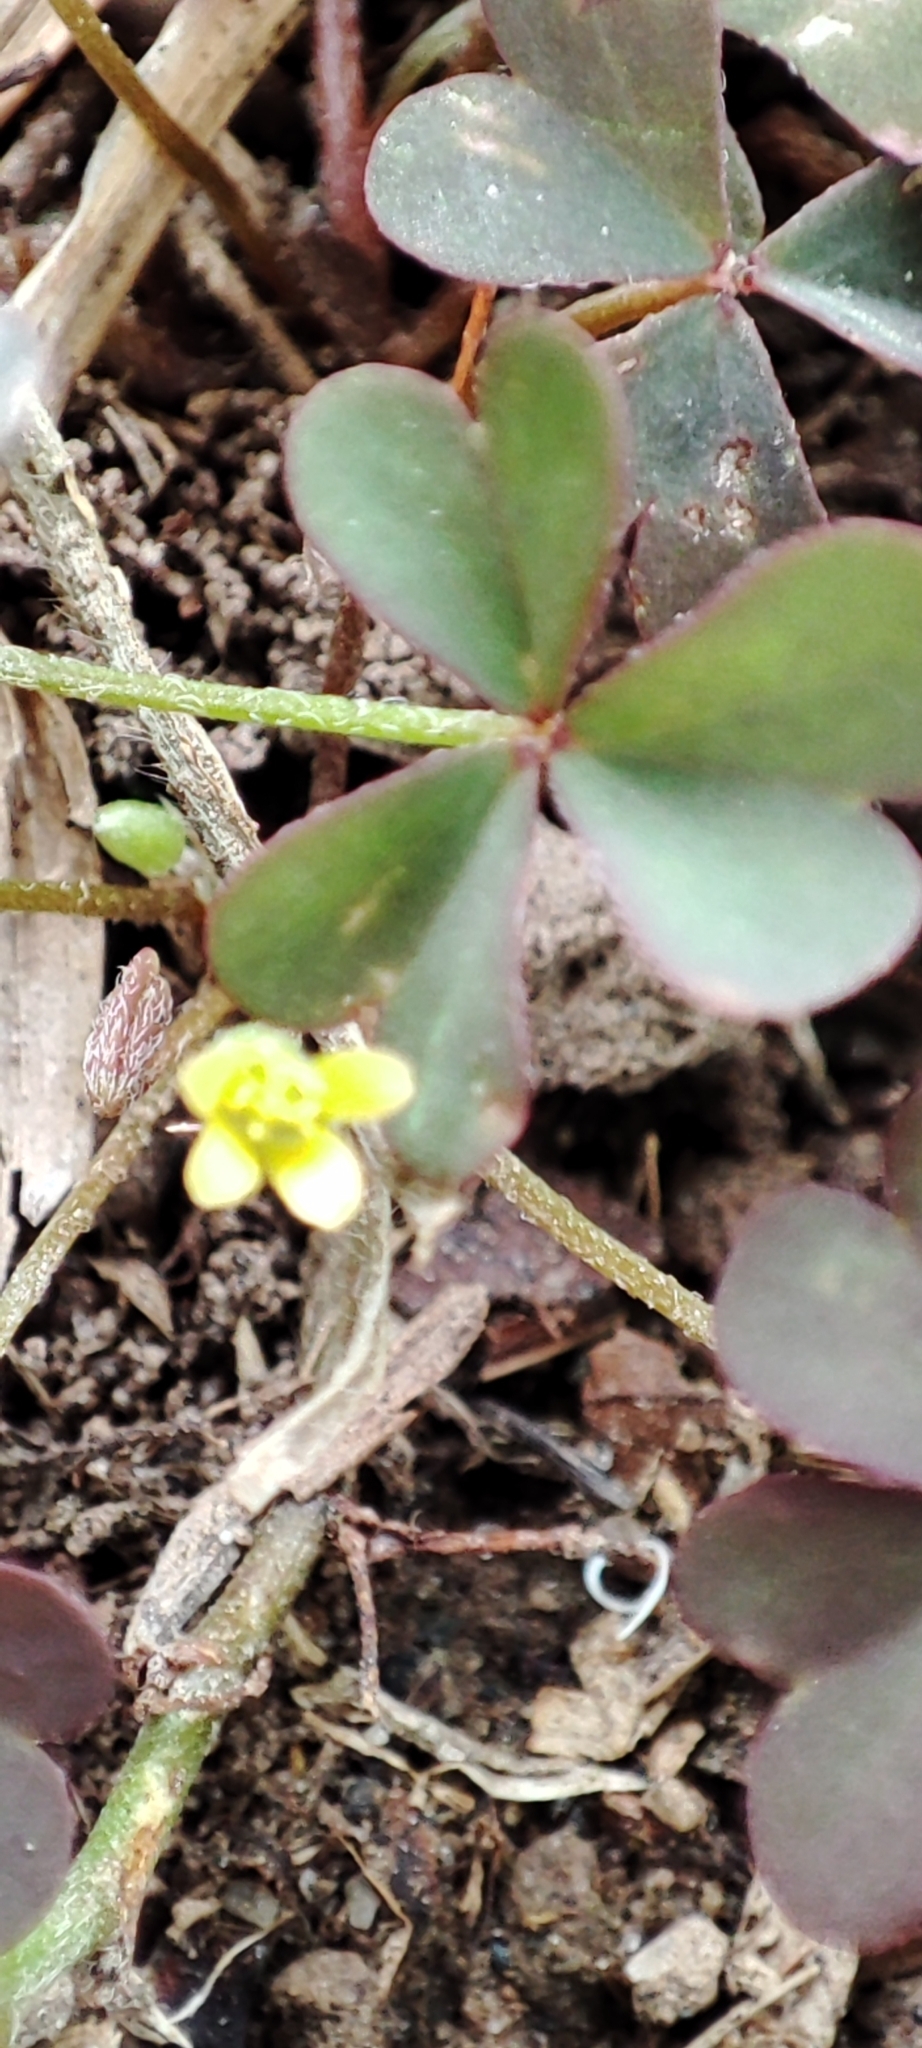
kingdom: Plantae
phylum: Tracheophyta
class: Magnoliopsida
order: Oxalidales
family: Oxalidaceae
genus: Oxalis
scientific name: Oxalis corniculata
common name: Procumbent yellow-sorrel
